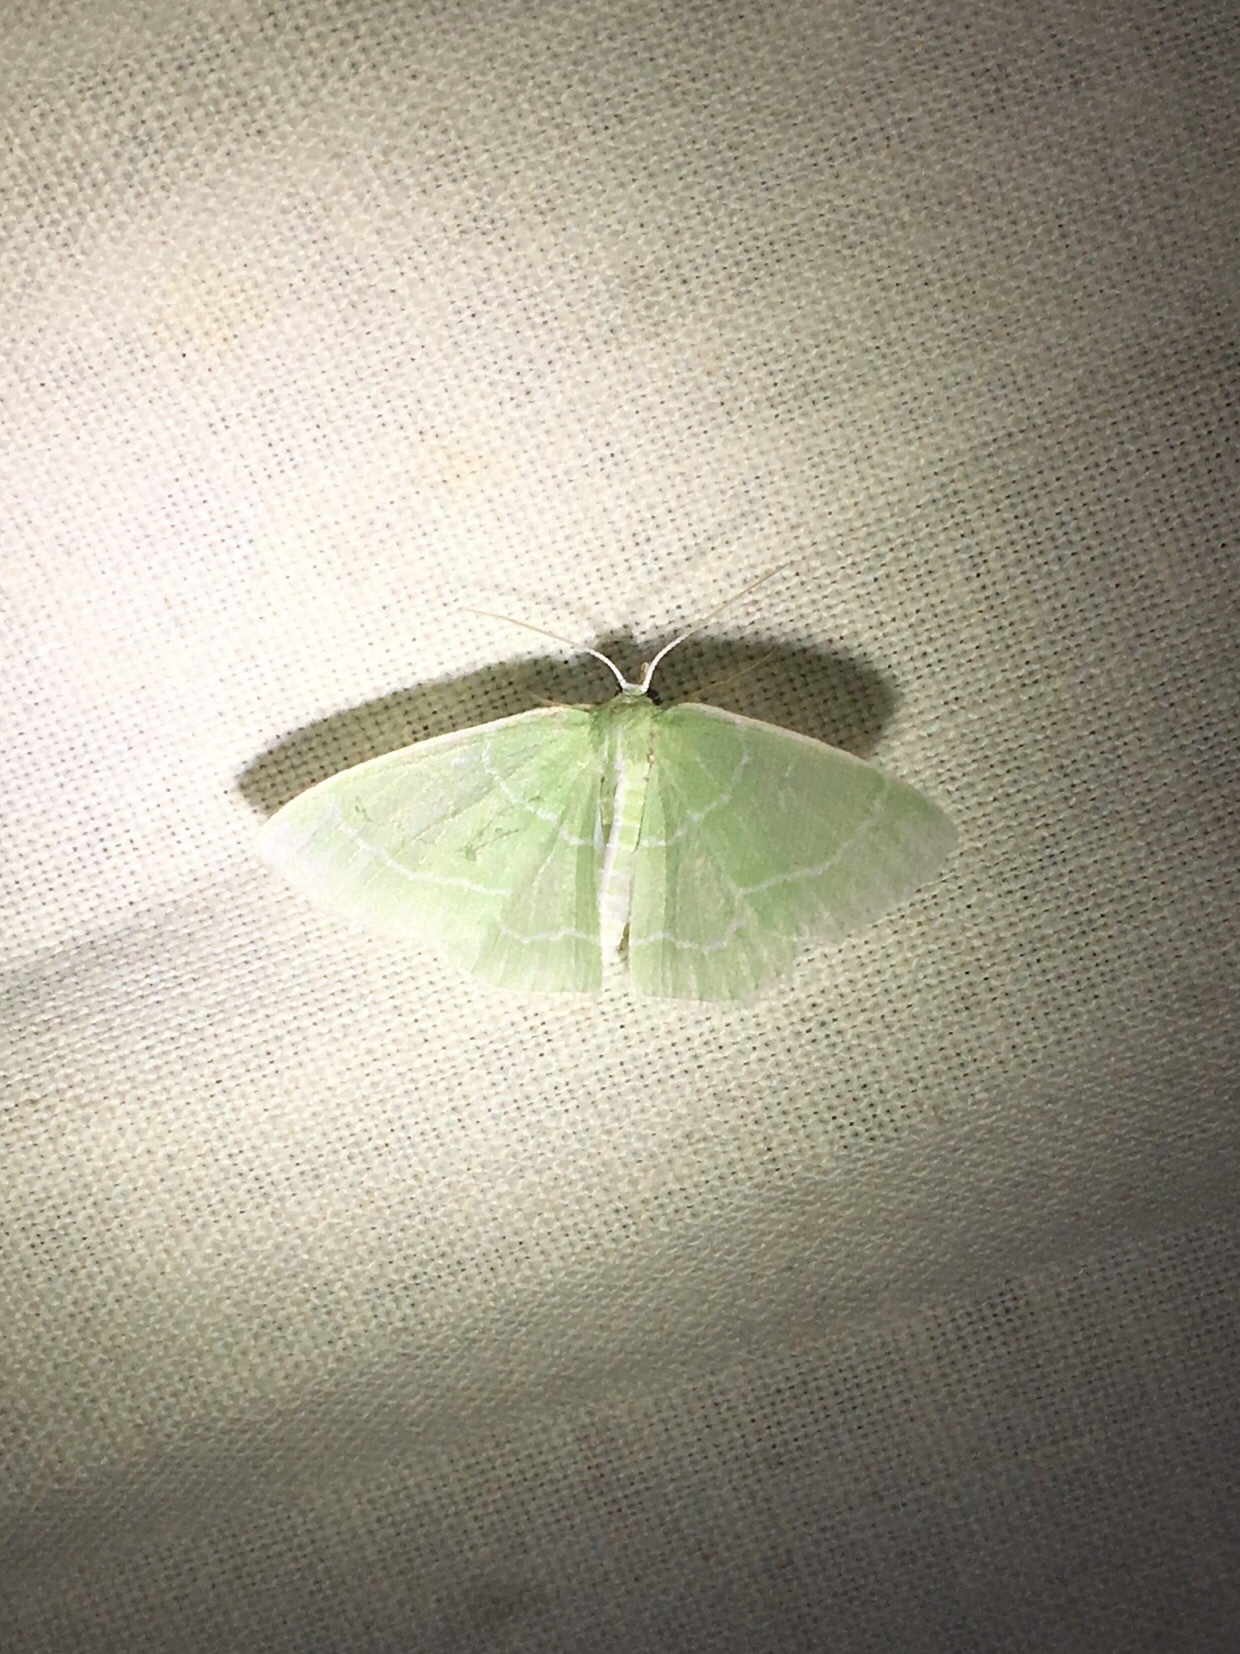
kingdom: Animalia
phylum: Arthropoda
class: Insecta
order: Lepidoptera
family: Geometridae
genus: Synchlora
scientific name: Synchlora aerata
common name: Wavy-lined emerald
